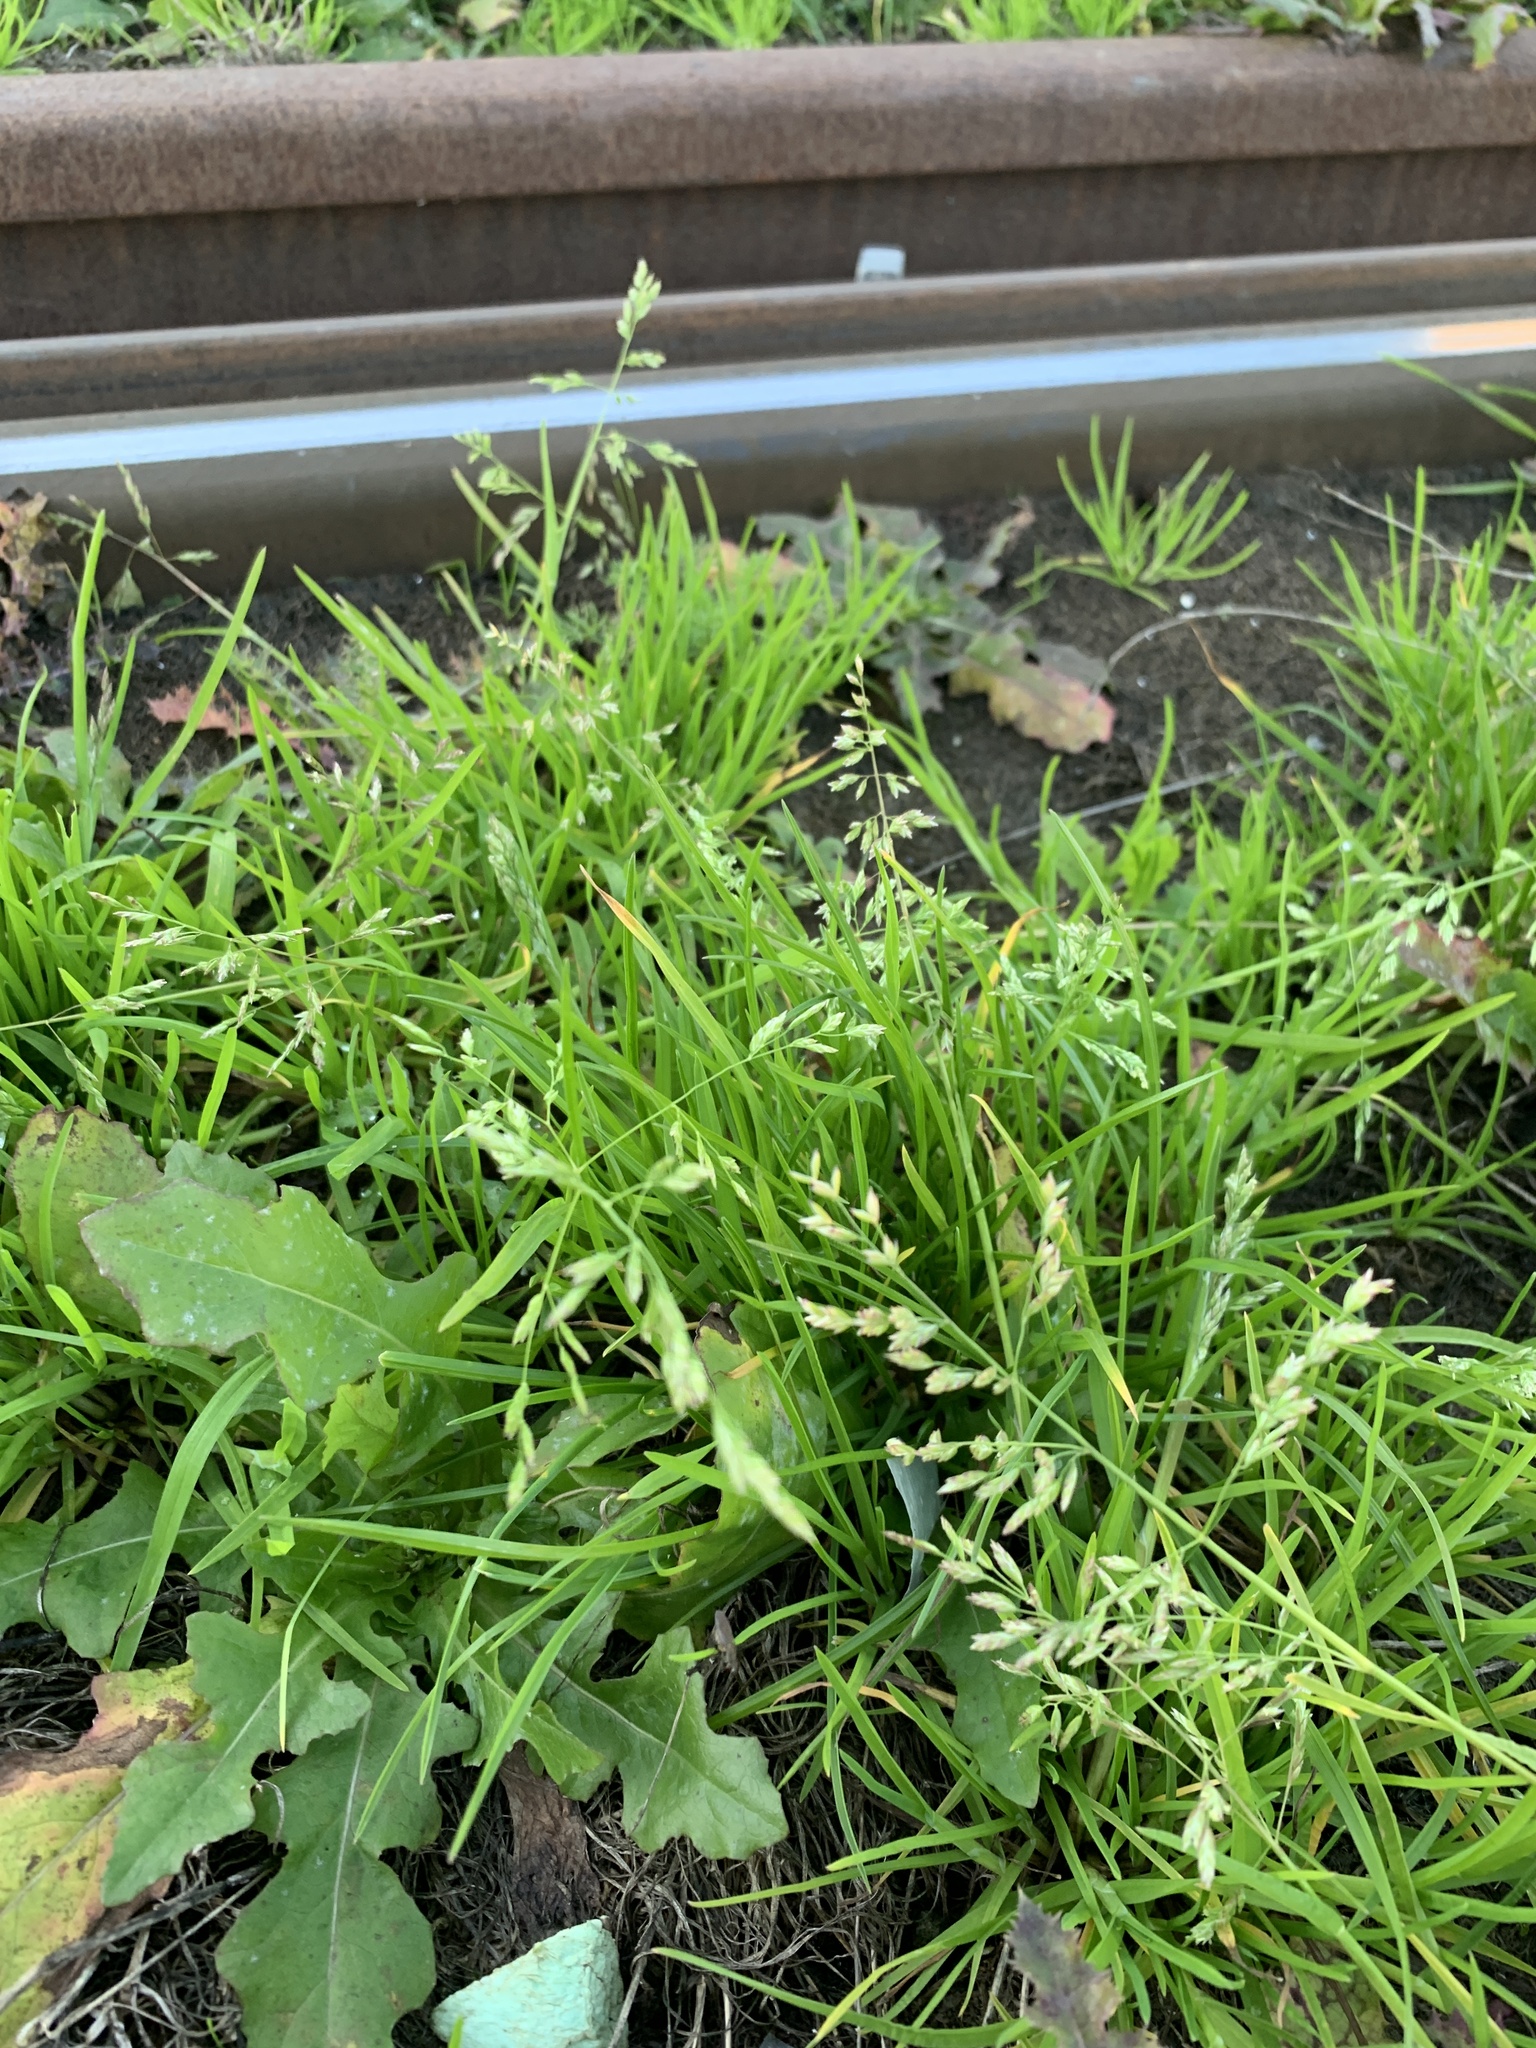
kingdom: Plantae
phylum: Tracheophyta
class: Liliopsida
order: Poales
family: Poaceae
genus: Poa
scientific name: Poa annua
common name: Annual bluegrass
